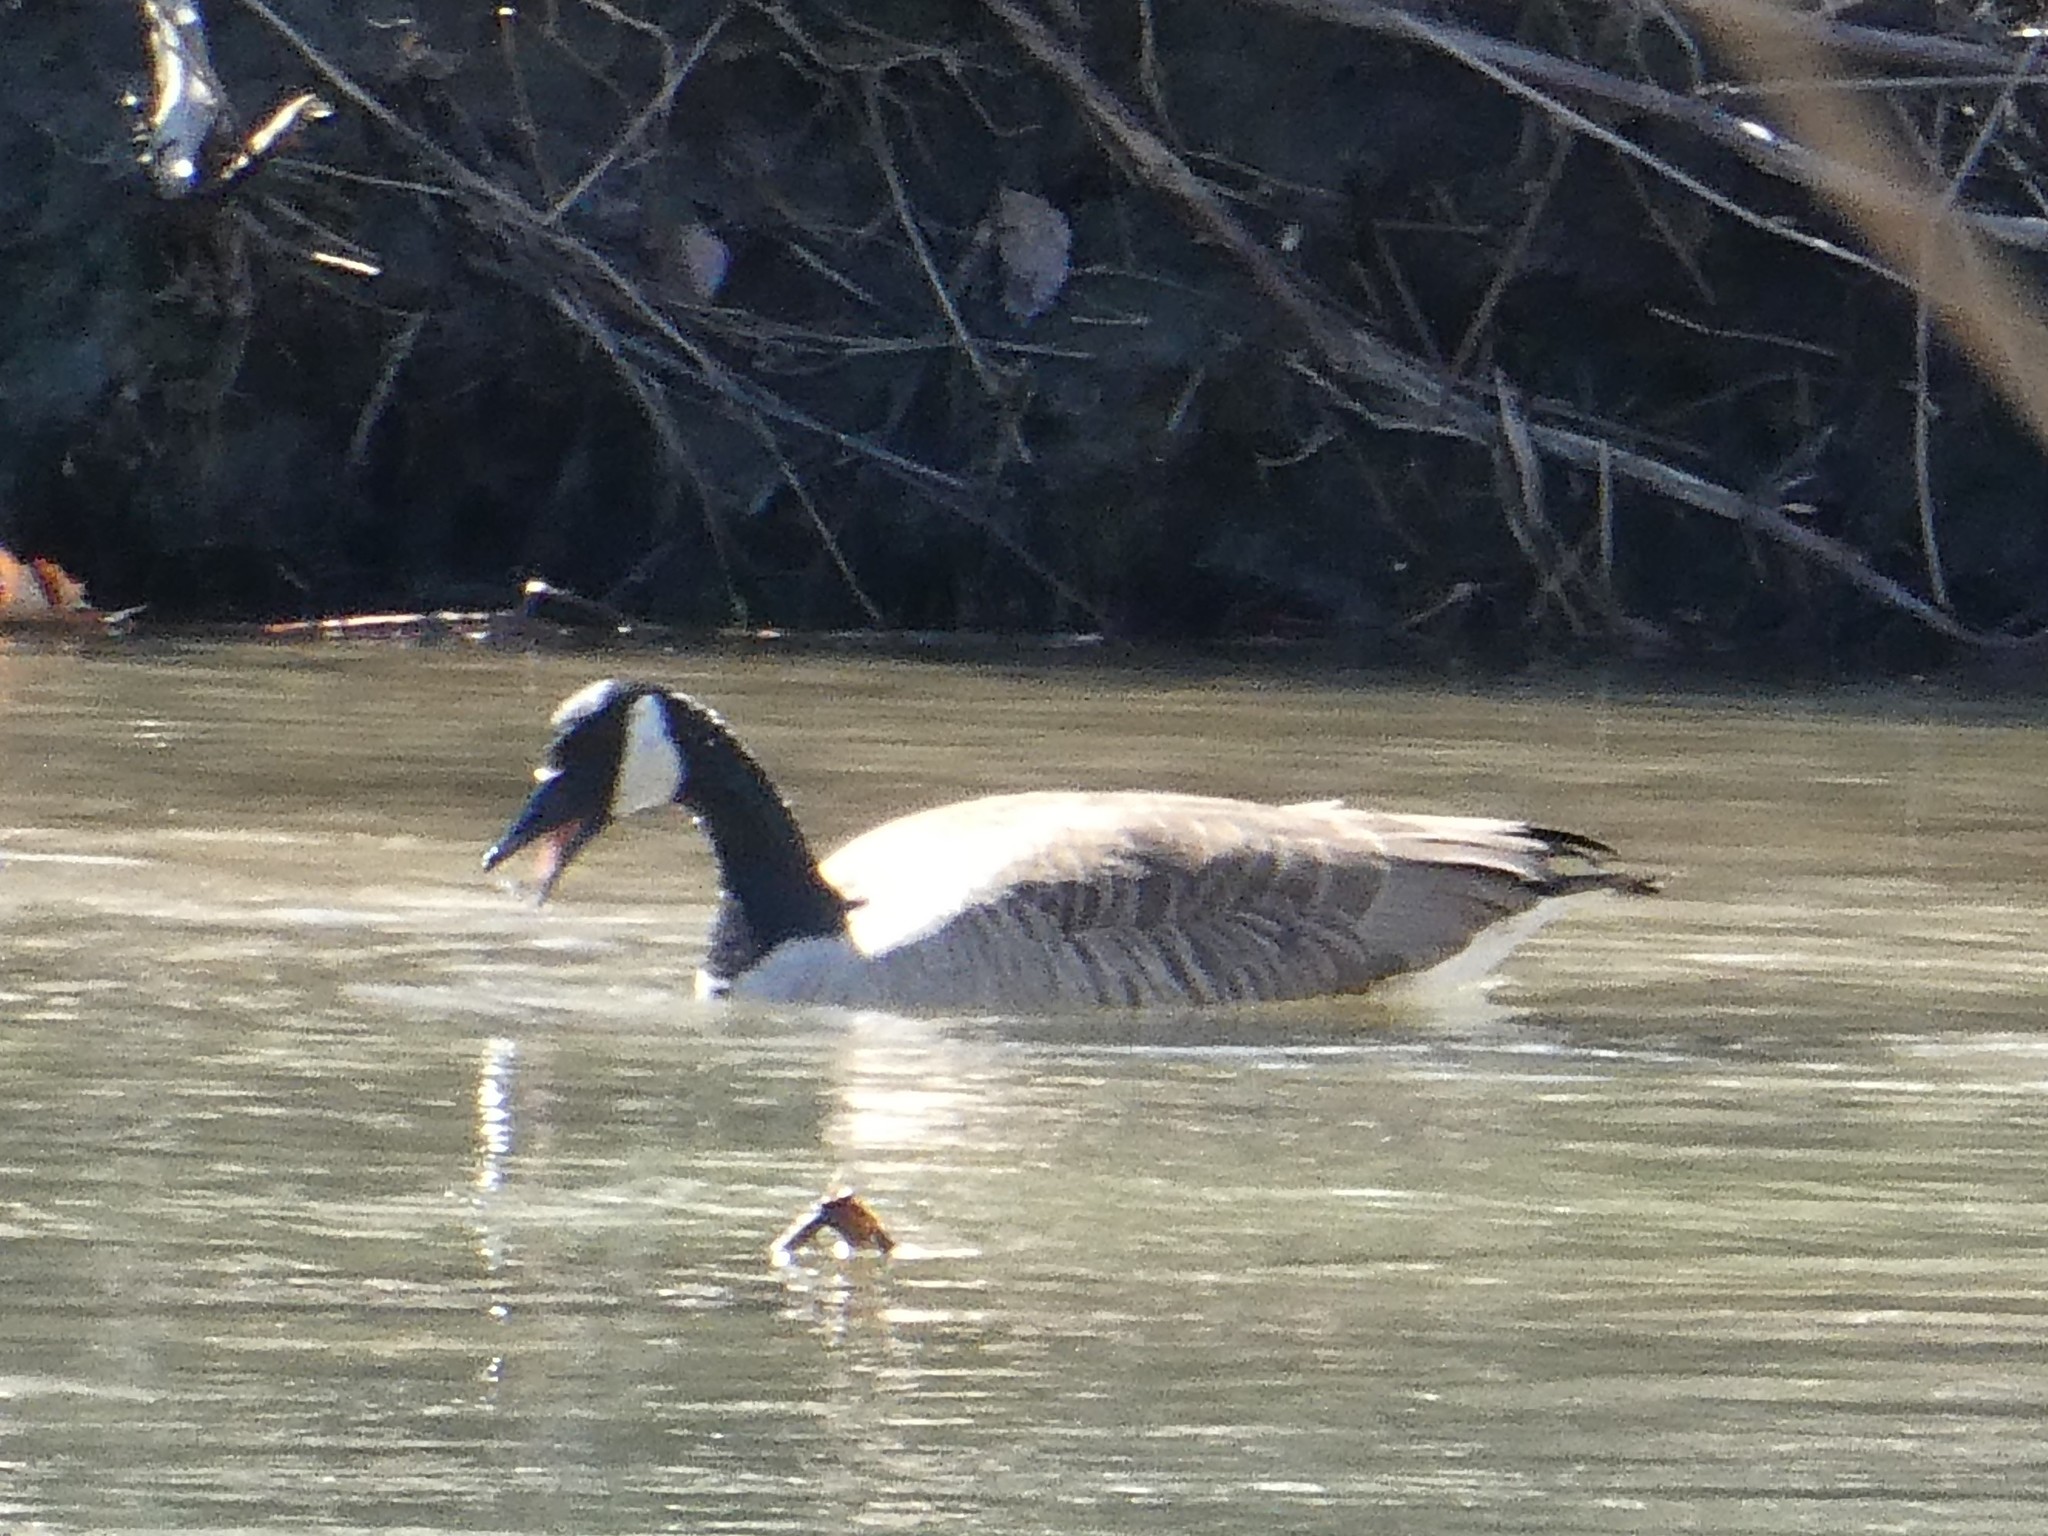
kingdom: Animalia
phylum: Chordata
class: Aves
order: Anseriformes
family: Anatidae
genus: Branta
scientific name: Branta canadensis
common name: Canada goose
